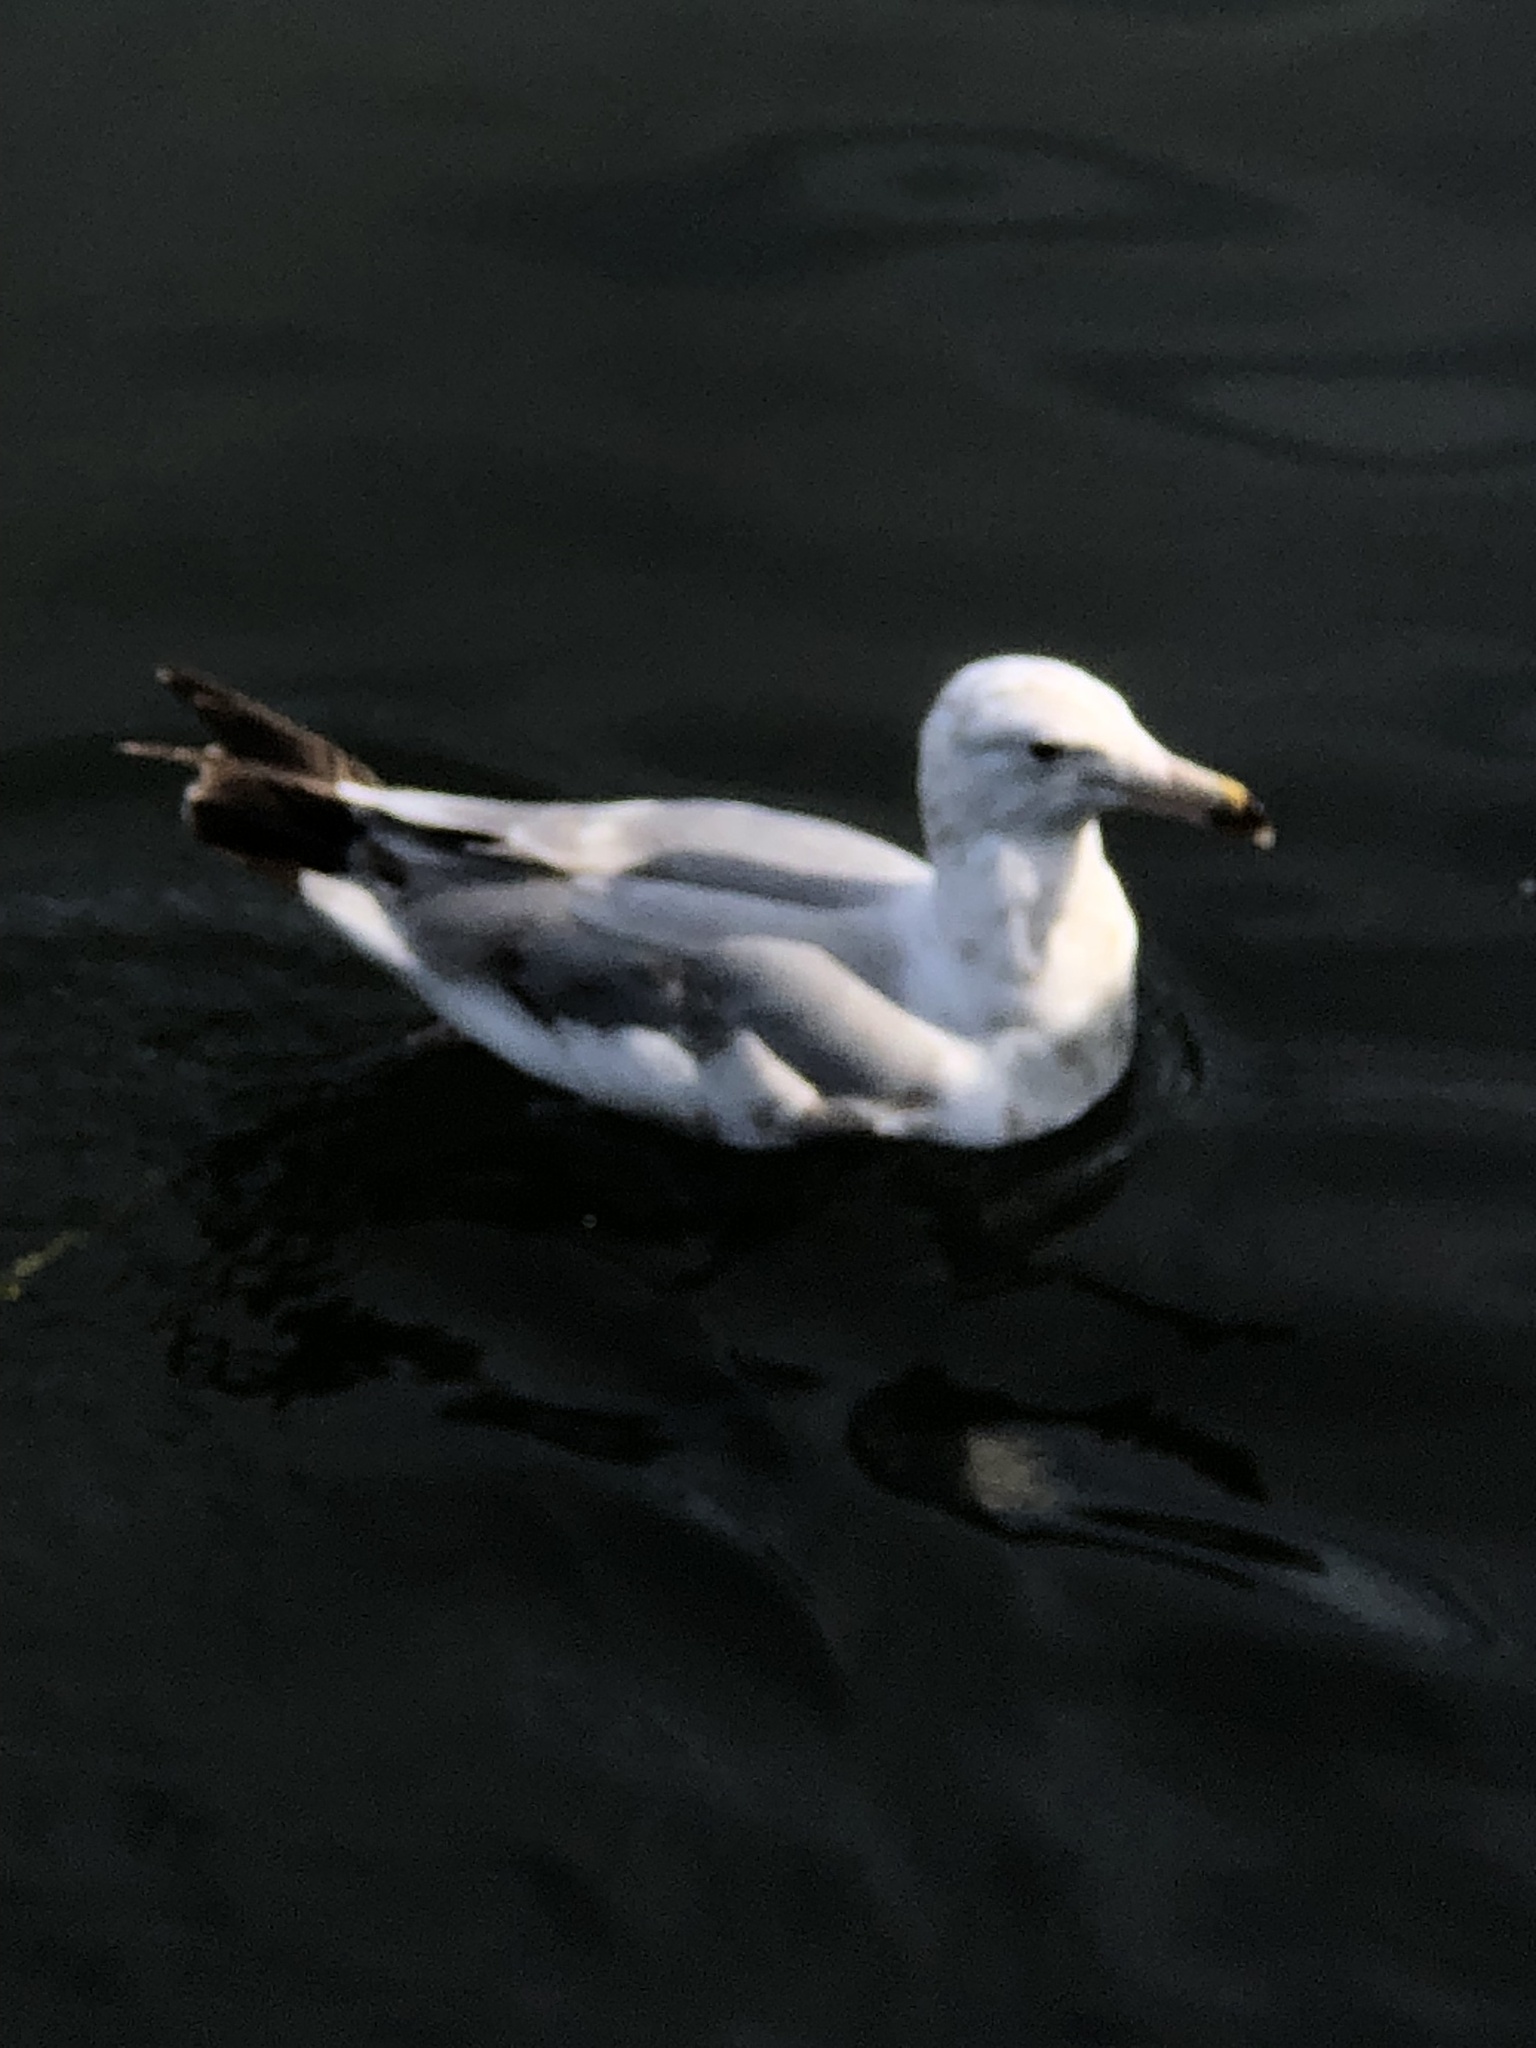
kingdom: Animalia
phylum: Chordata
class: Aves
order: Charadriiformes
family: Laridae
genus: Larus
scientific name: Larus argentatus
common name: Herring gull
